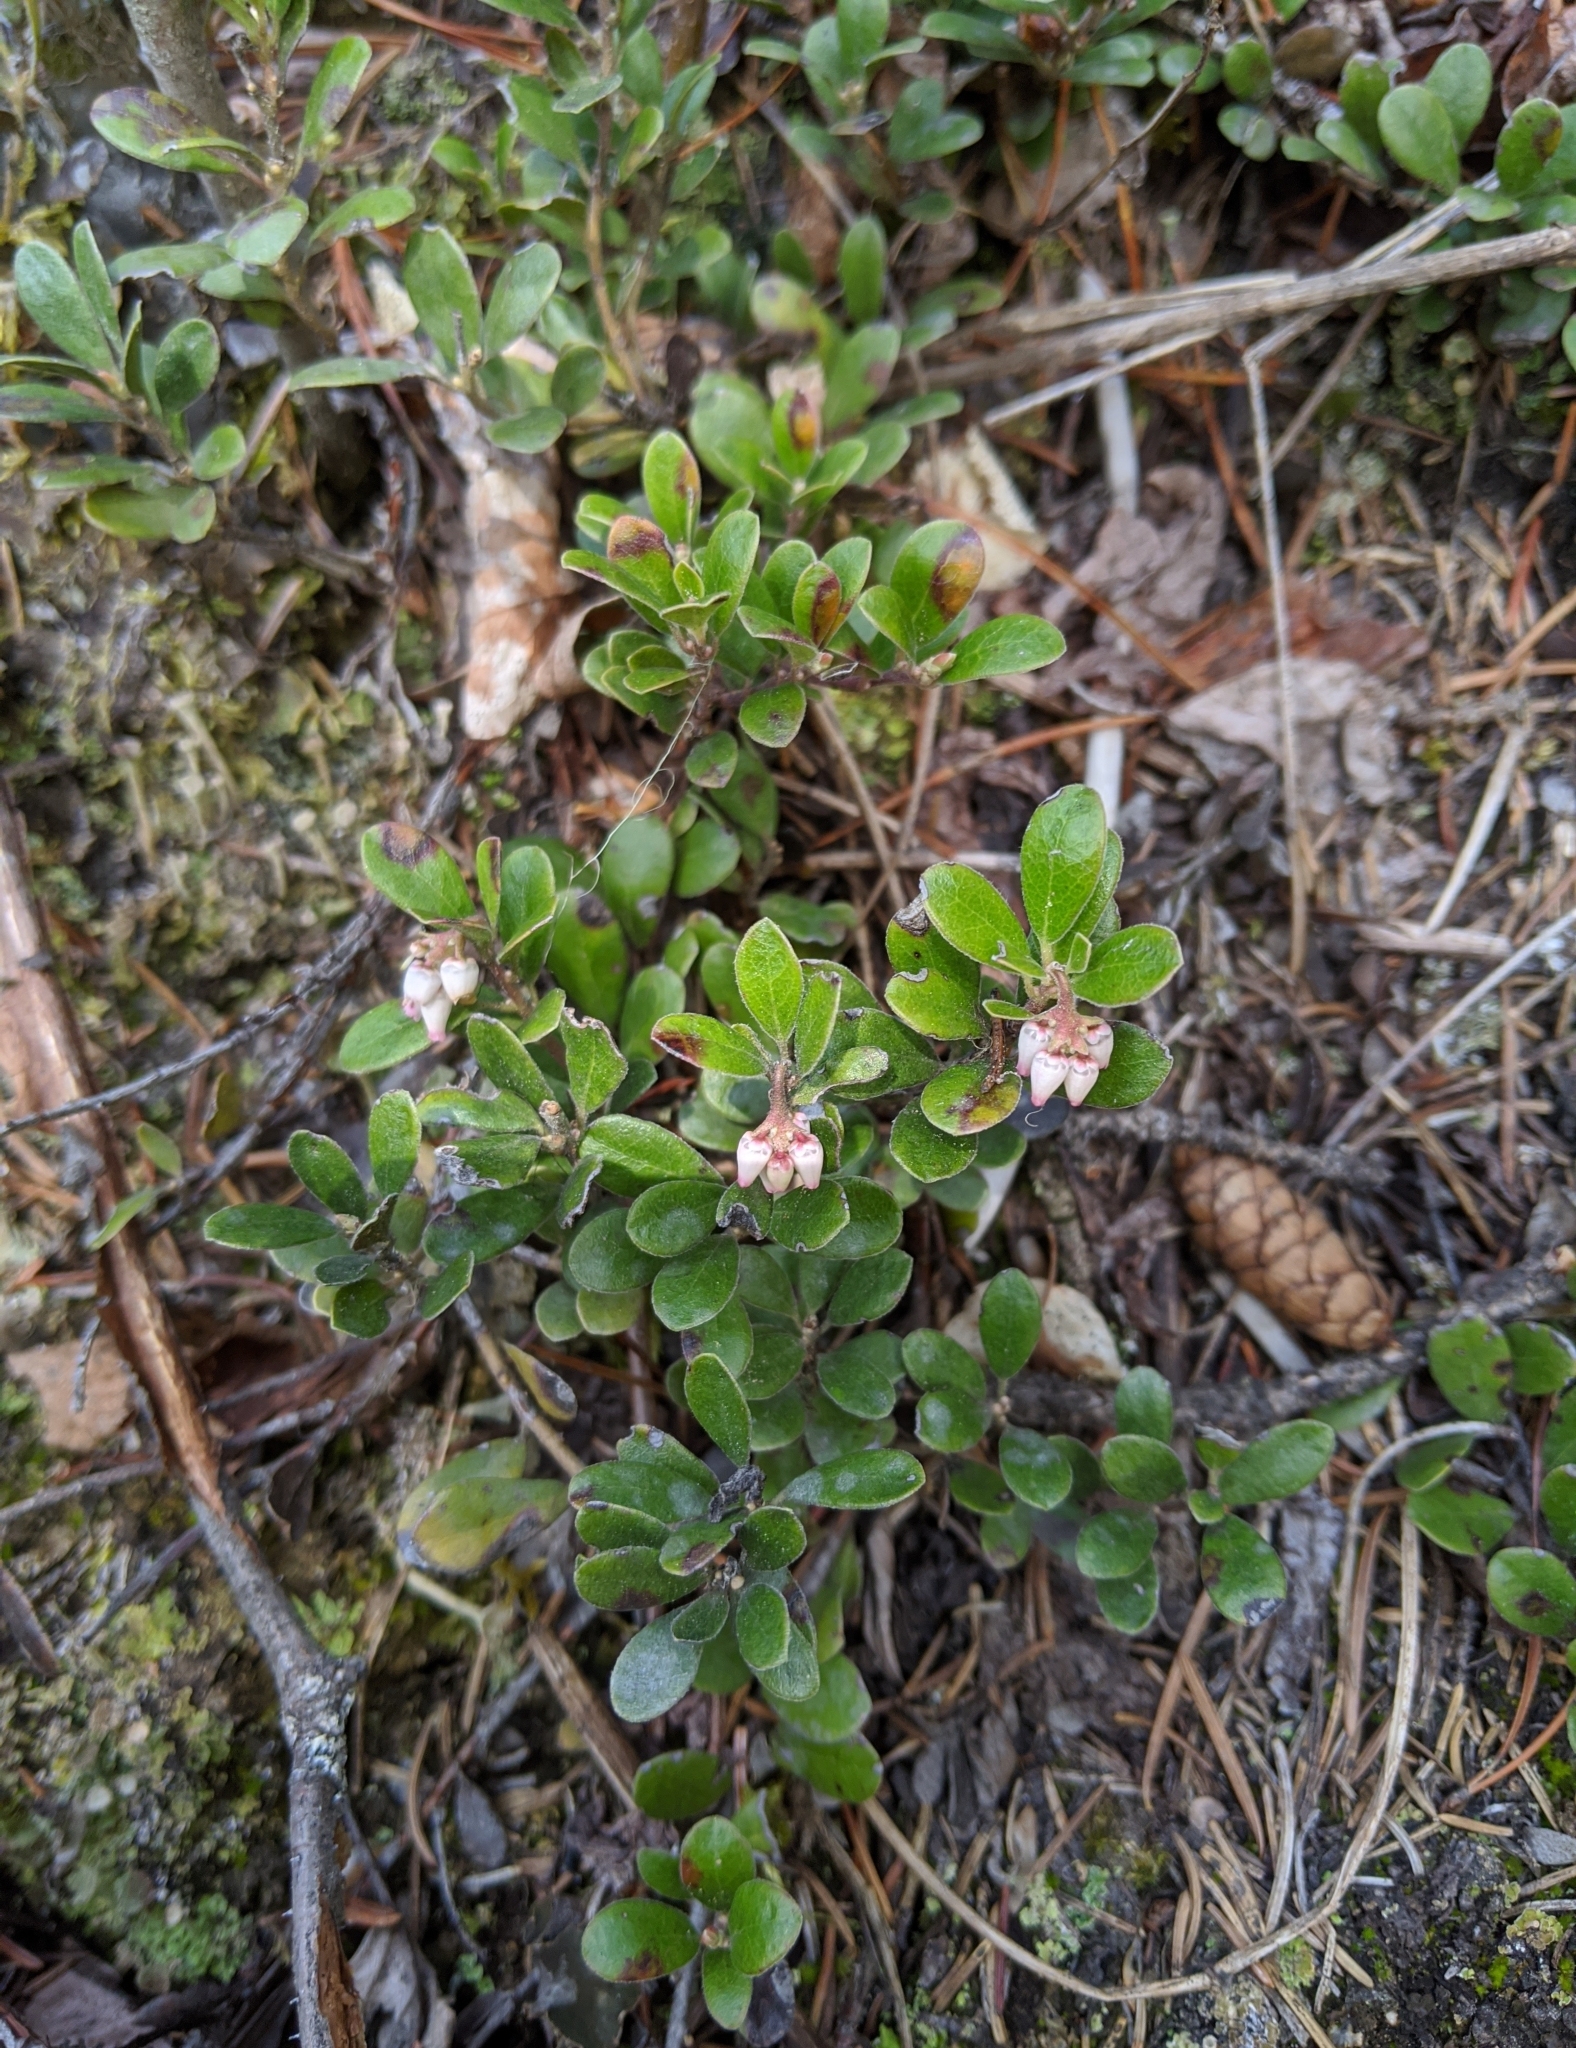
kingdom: Plantae
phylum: Tracheophyta
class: Magnoliopsida
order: Ericales
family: Ericaceae
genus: Arctostaphylos
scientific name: Arctostaphylos uva-ursi
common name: Bearberry
